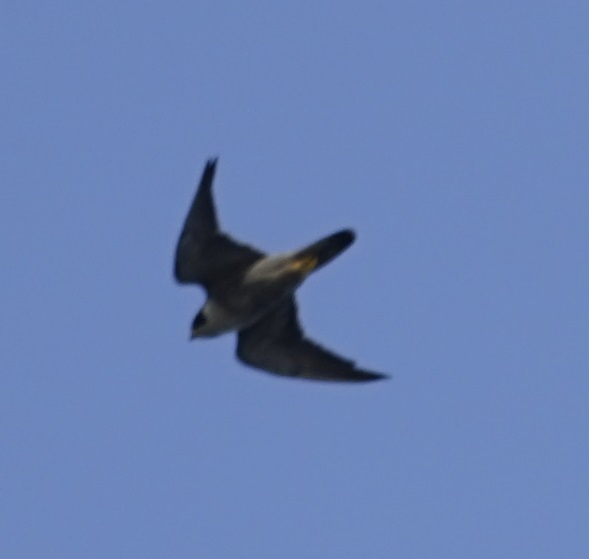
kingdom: Animalia
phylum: Chordata
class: Aves
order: Falconiformes
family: Falconidae
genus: Falco
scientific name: Falco peregrinus
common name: Peregrine falcon
